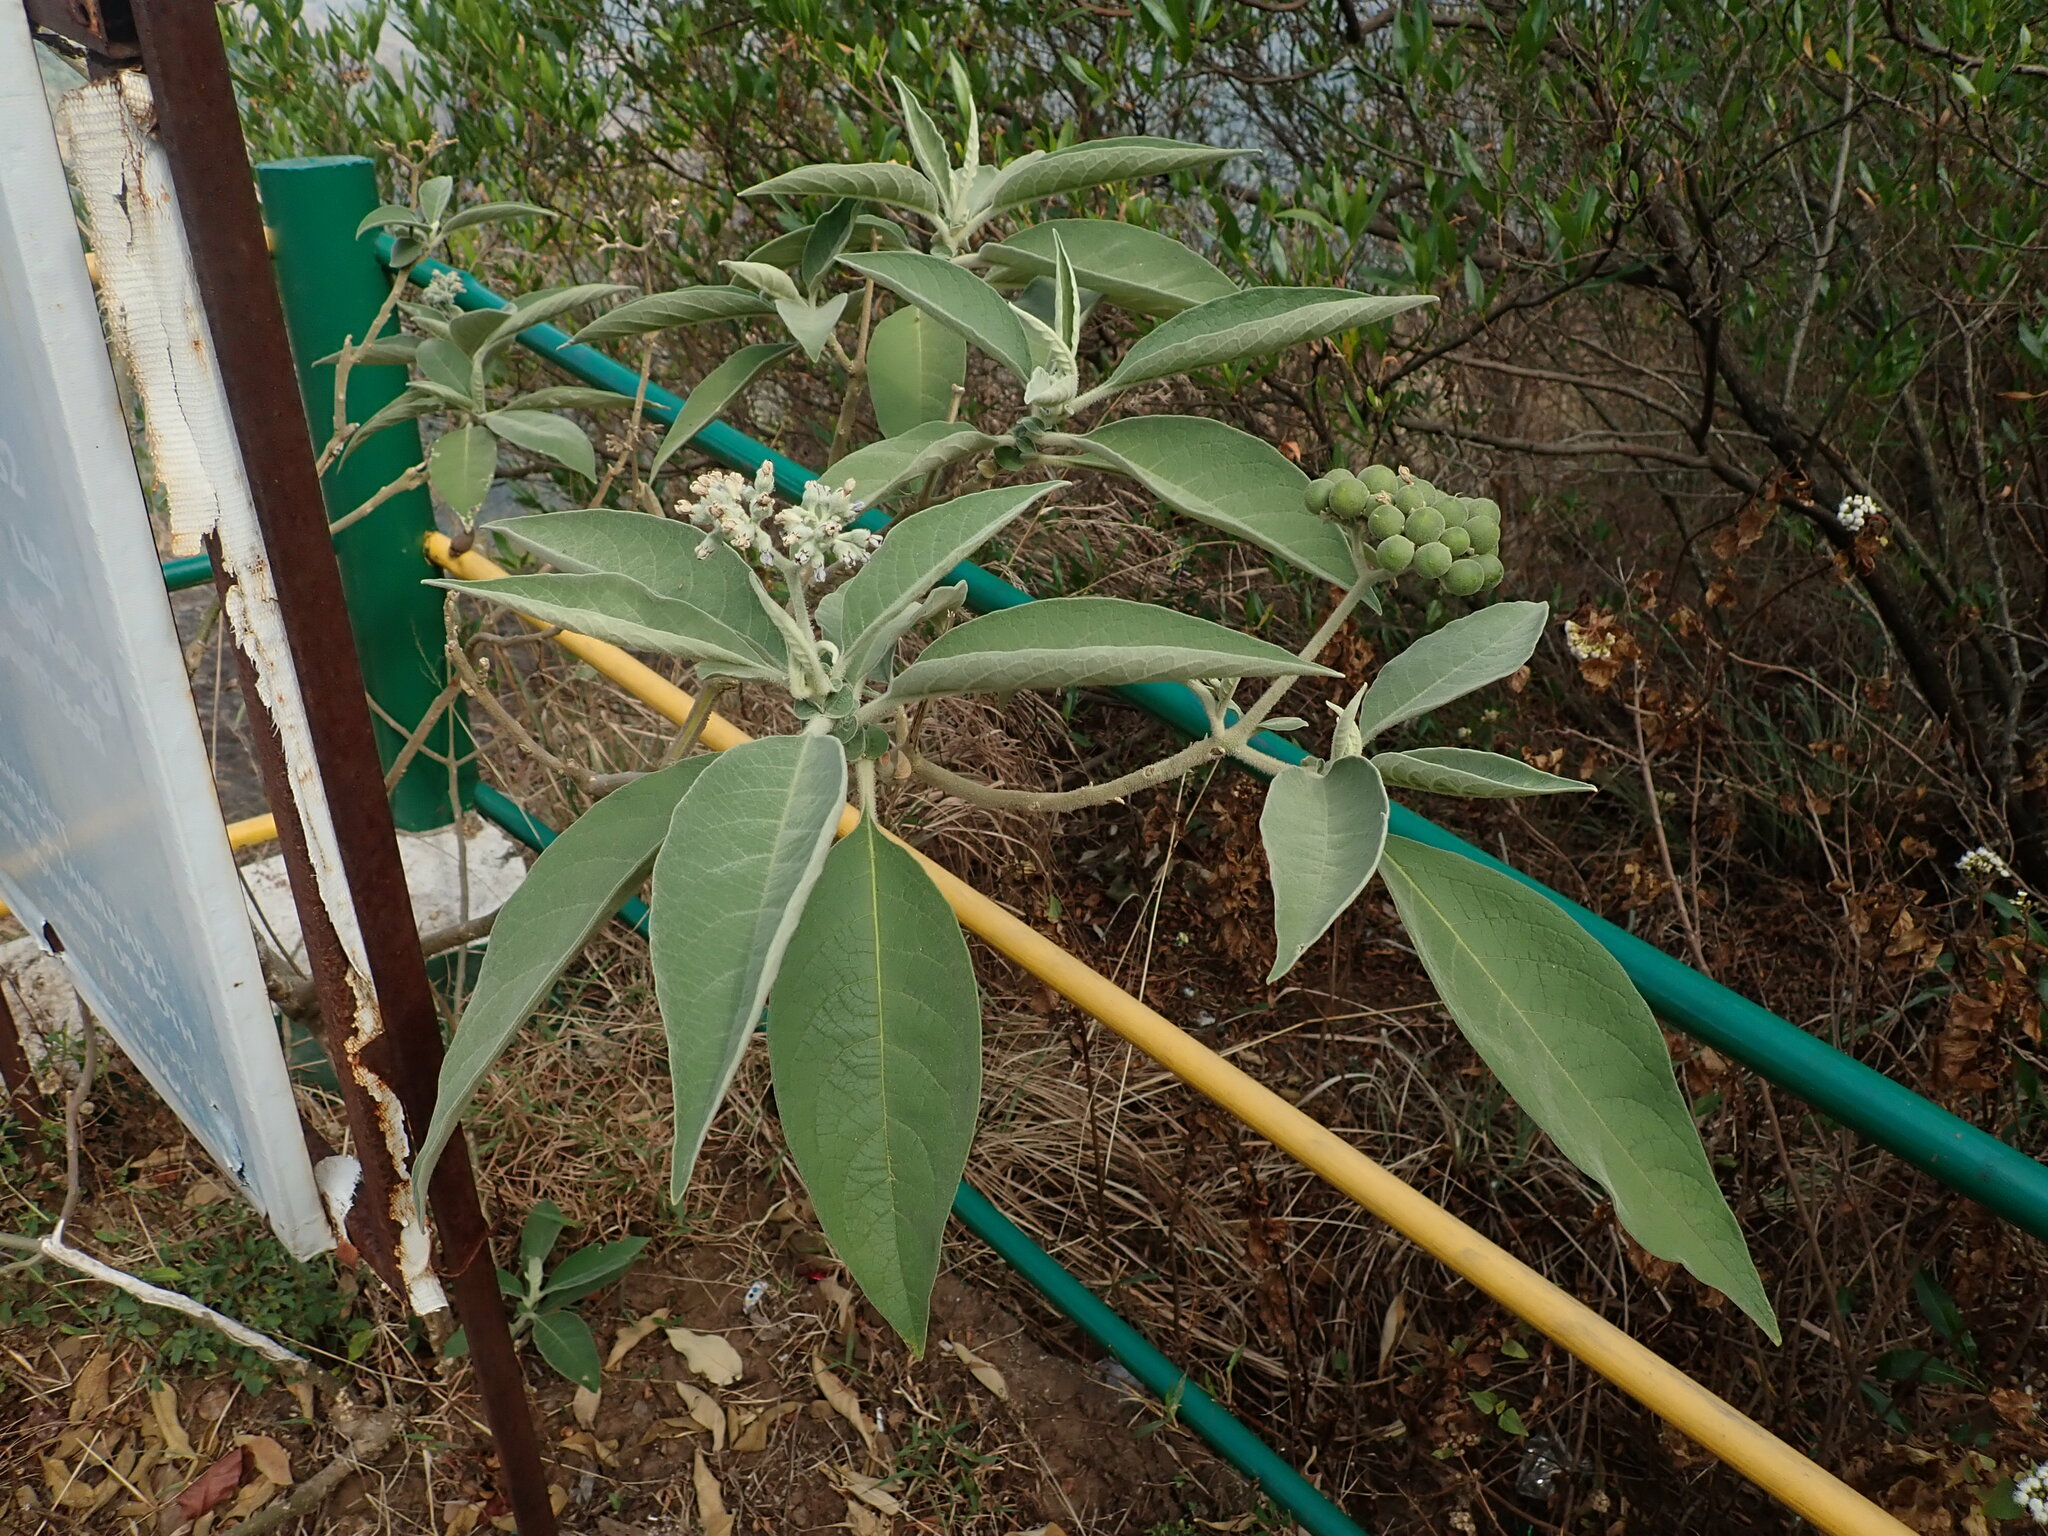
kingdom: Plantae
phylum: Tracheophyta
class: Magnoliopsida
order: Solanales
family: Solanaceae
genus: Solanum
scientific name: Solanum mauritianum
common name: Earleaf nightshade
